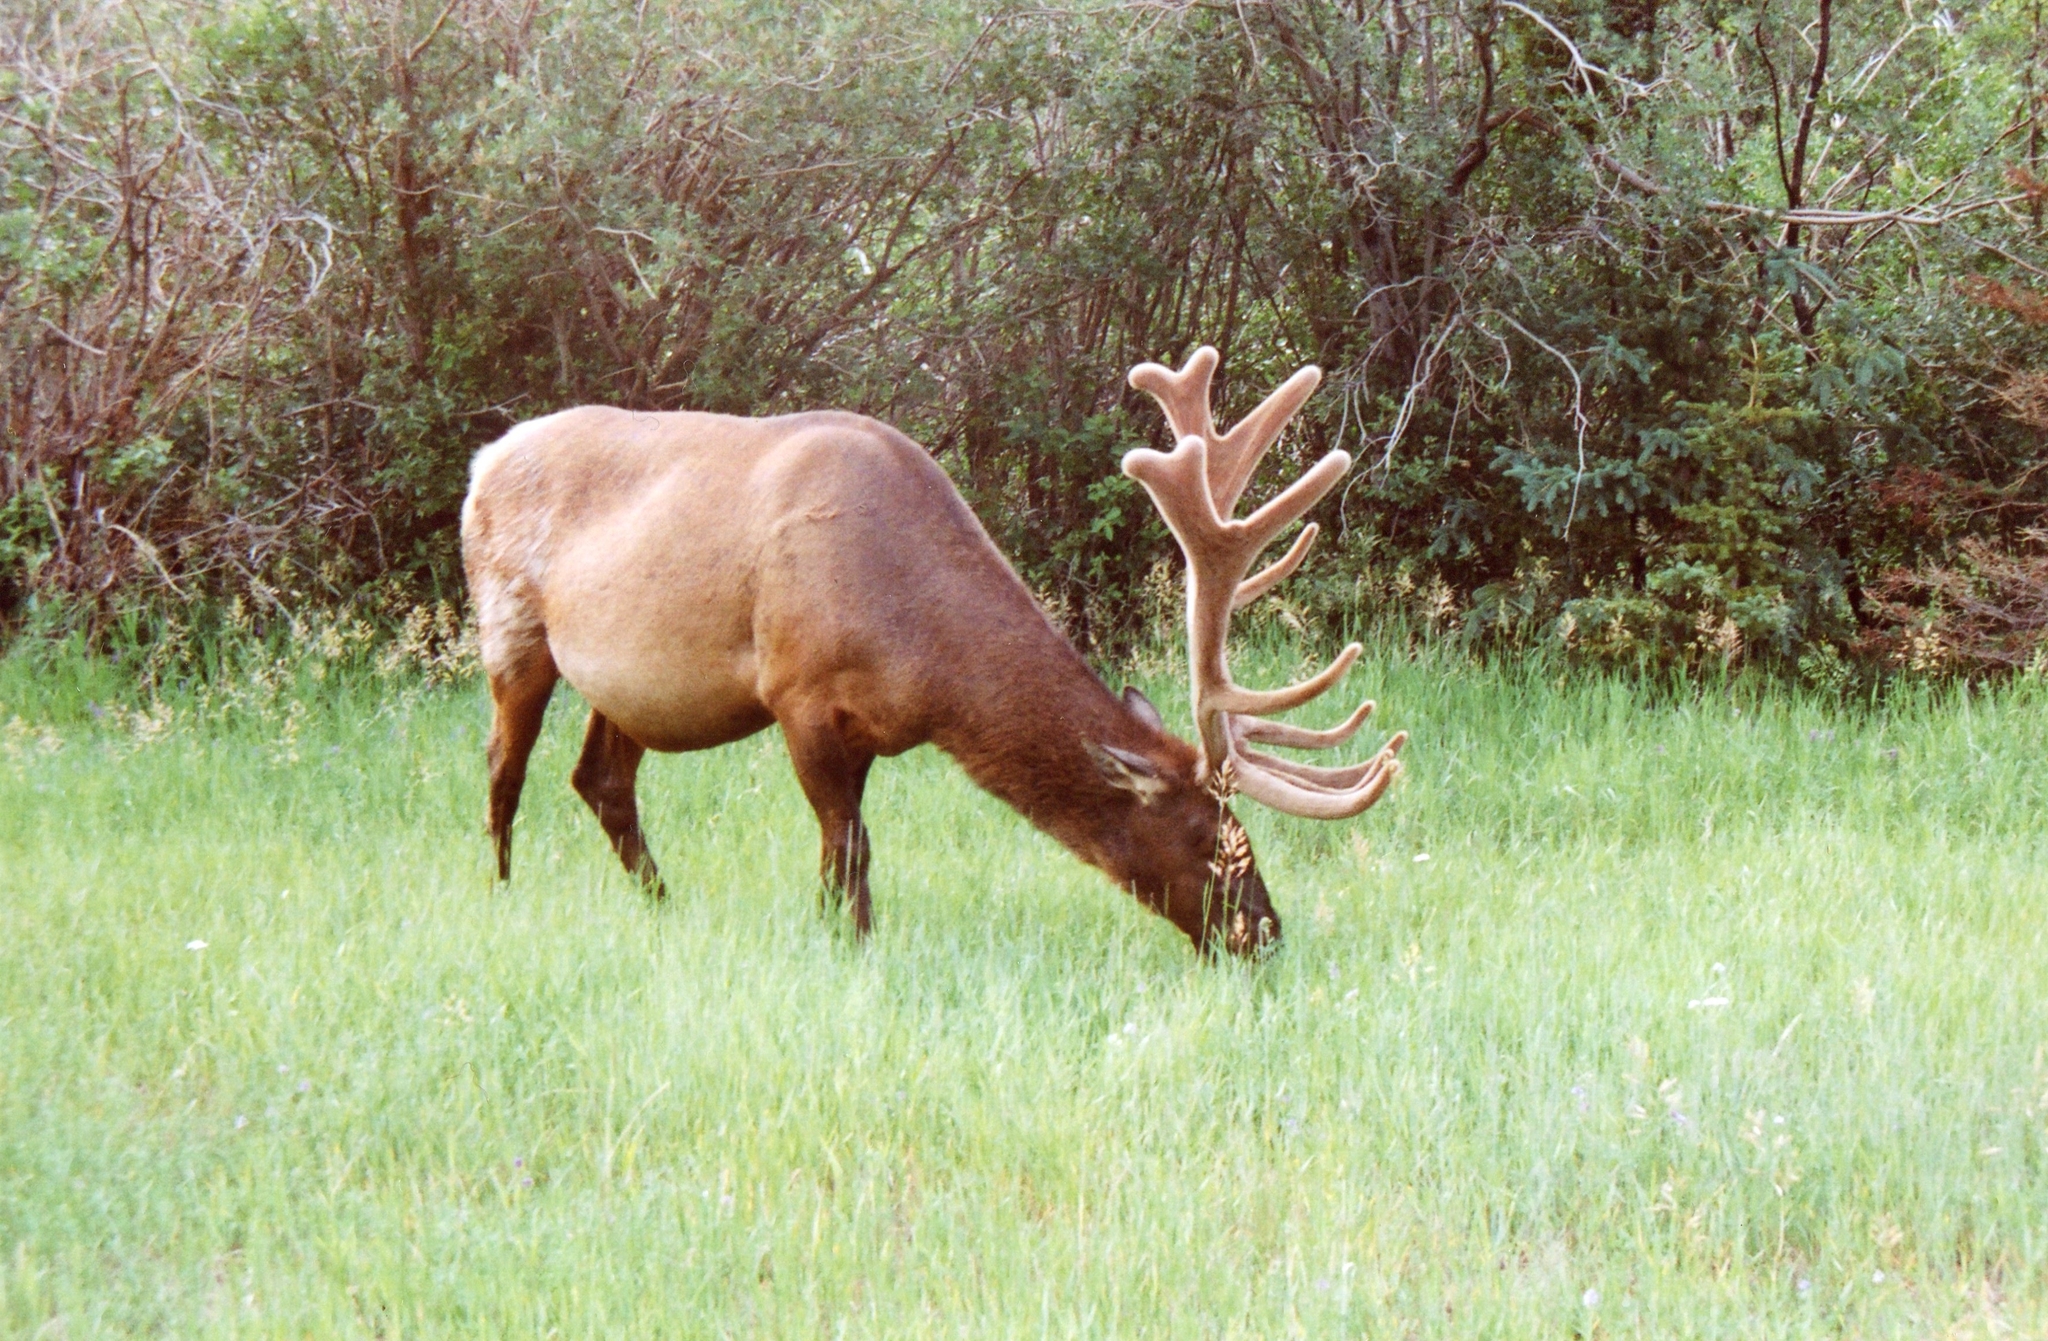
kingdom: Animalia
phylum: Chordata
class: Mammalia
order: Artiodactyla
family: Cervidae
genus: Cervus
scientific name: Cervus elaphus
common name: Red deer
